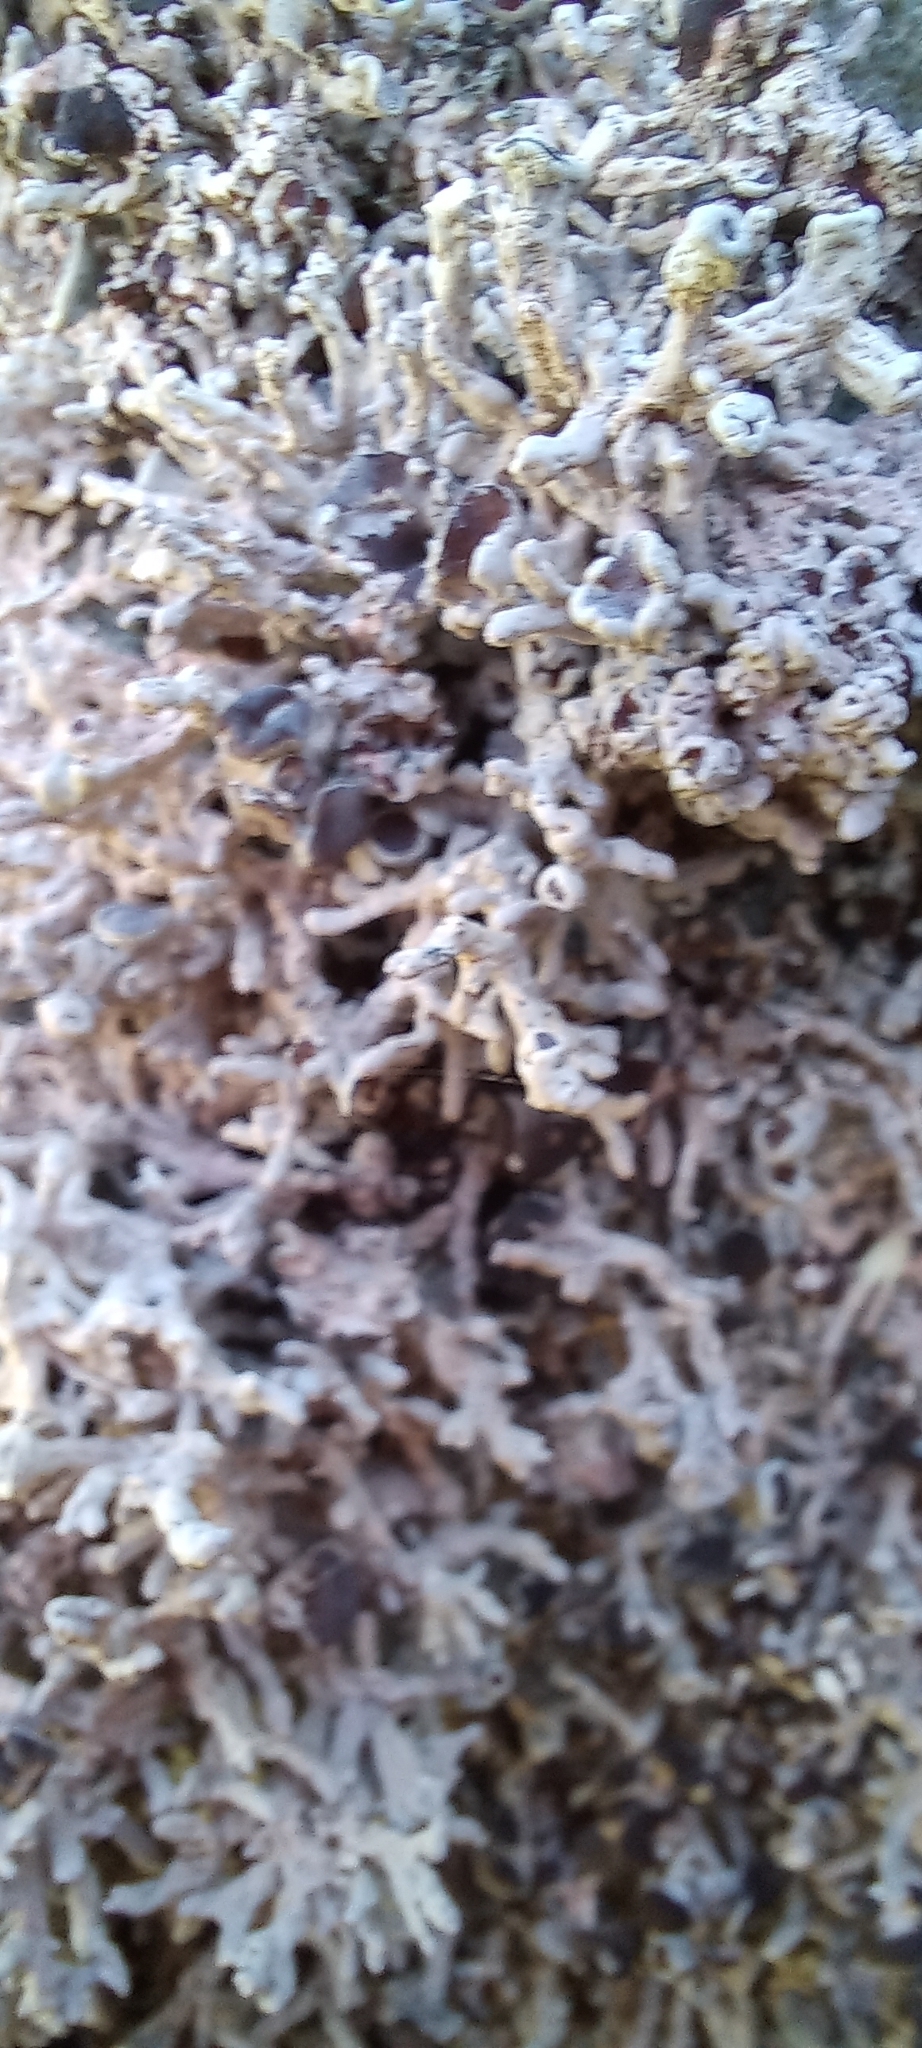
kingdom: Fungi
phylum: Ascomycota
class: Arthoniomycetes
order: Arthoniales
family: Opegraphaceae
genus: Combea
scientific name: Combea mollusca
